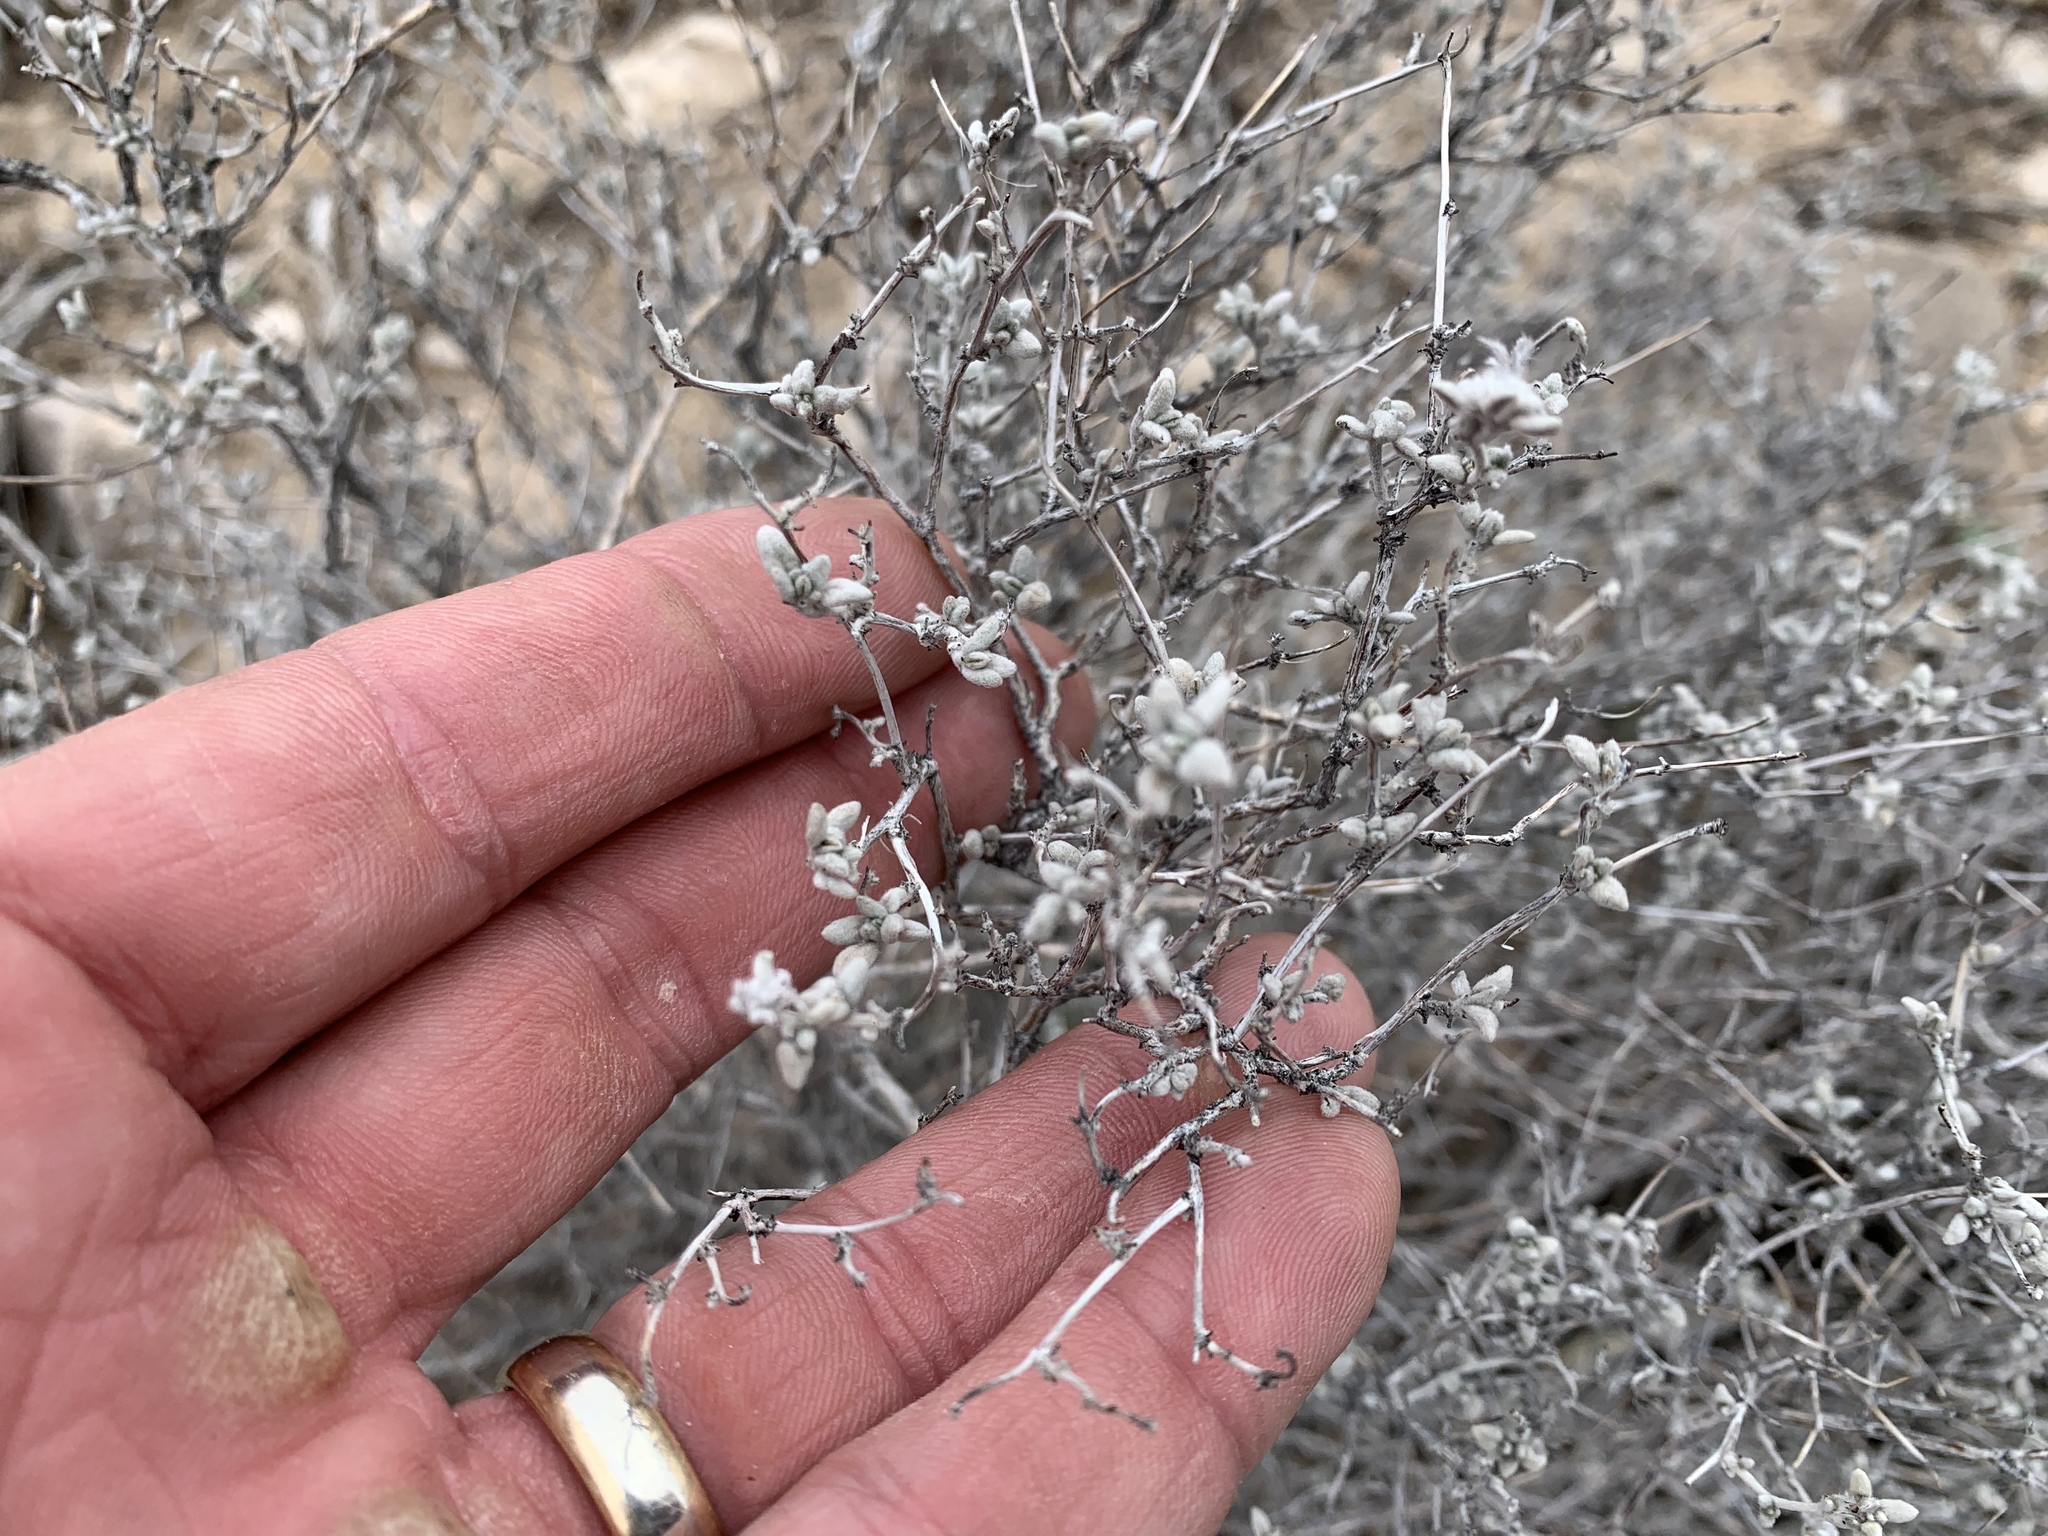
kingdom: Plantae
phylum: Tracheophyta
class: Magnoliopsida
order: Lamiales
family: Scrophulariaceae
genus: Leucophyllum
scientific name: Leucophyllum frutescens
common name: Texas silverleaf
